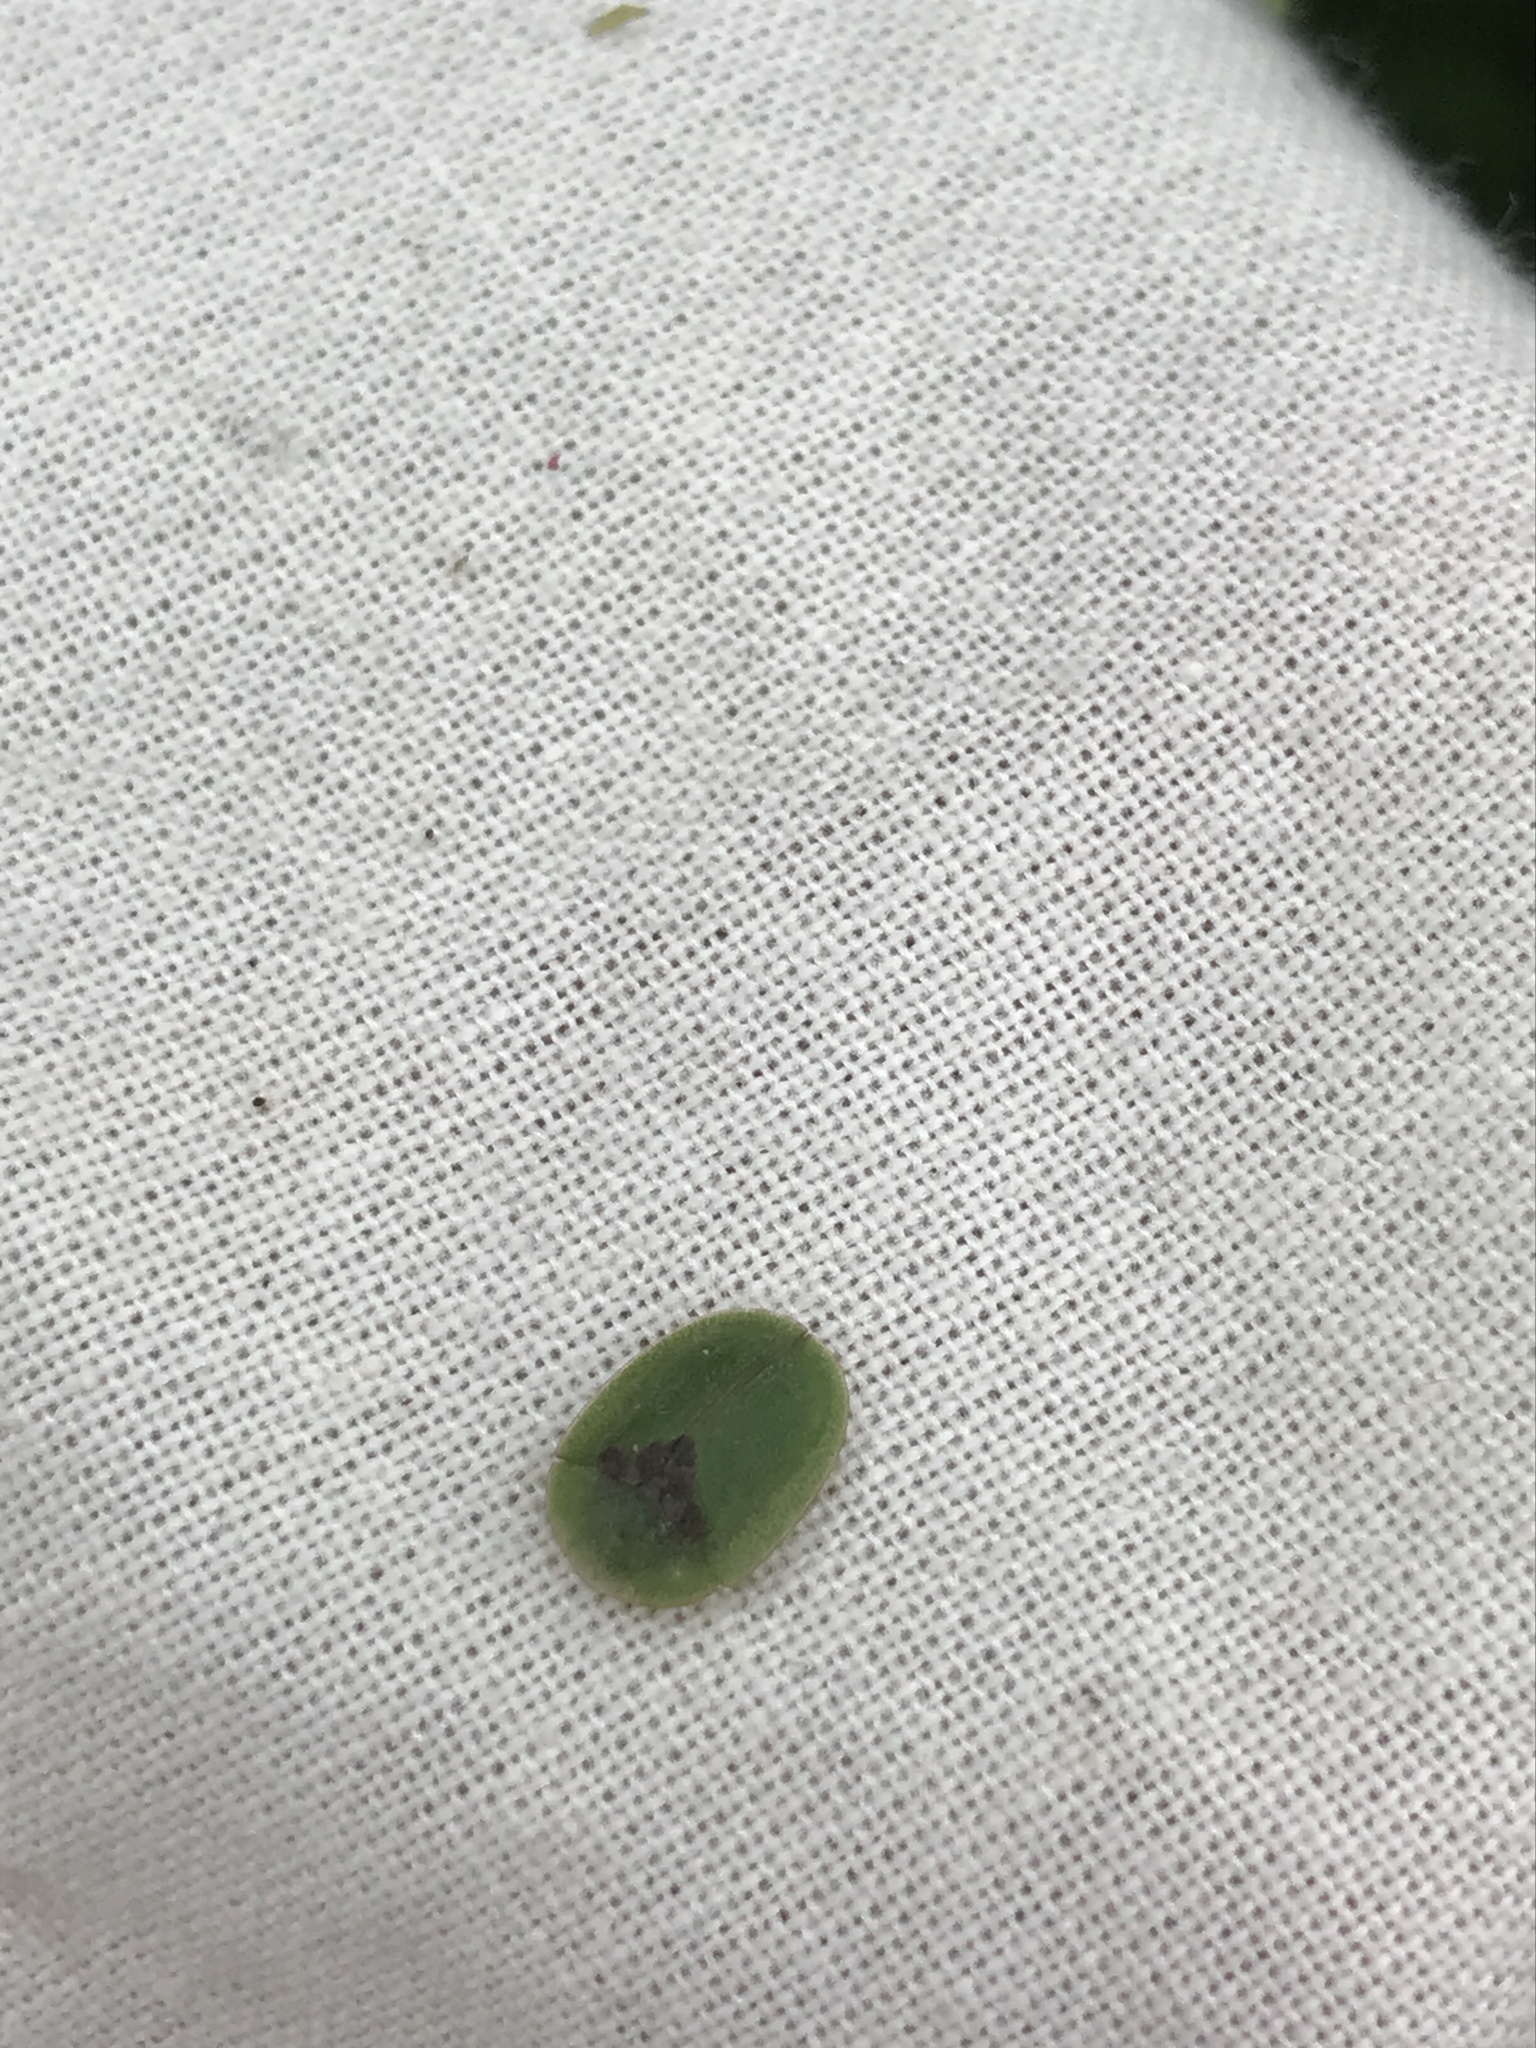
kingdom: Animalia
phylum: Arthropoda
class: Insecta
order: Coleoptera
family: Chrysomelidae
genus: Cassida
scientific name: Cassida rubiginosa
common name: Thistle tortoise beetle
